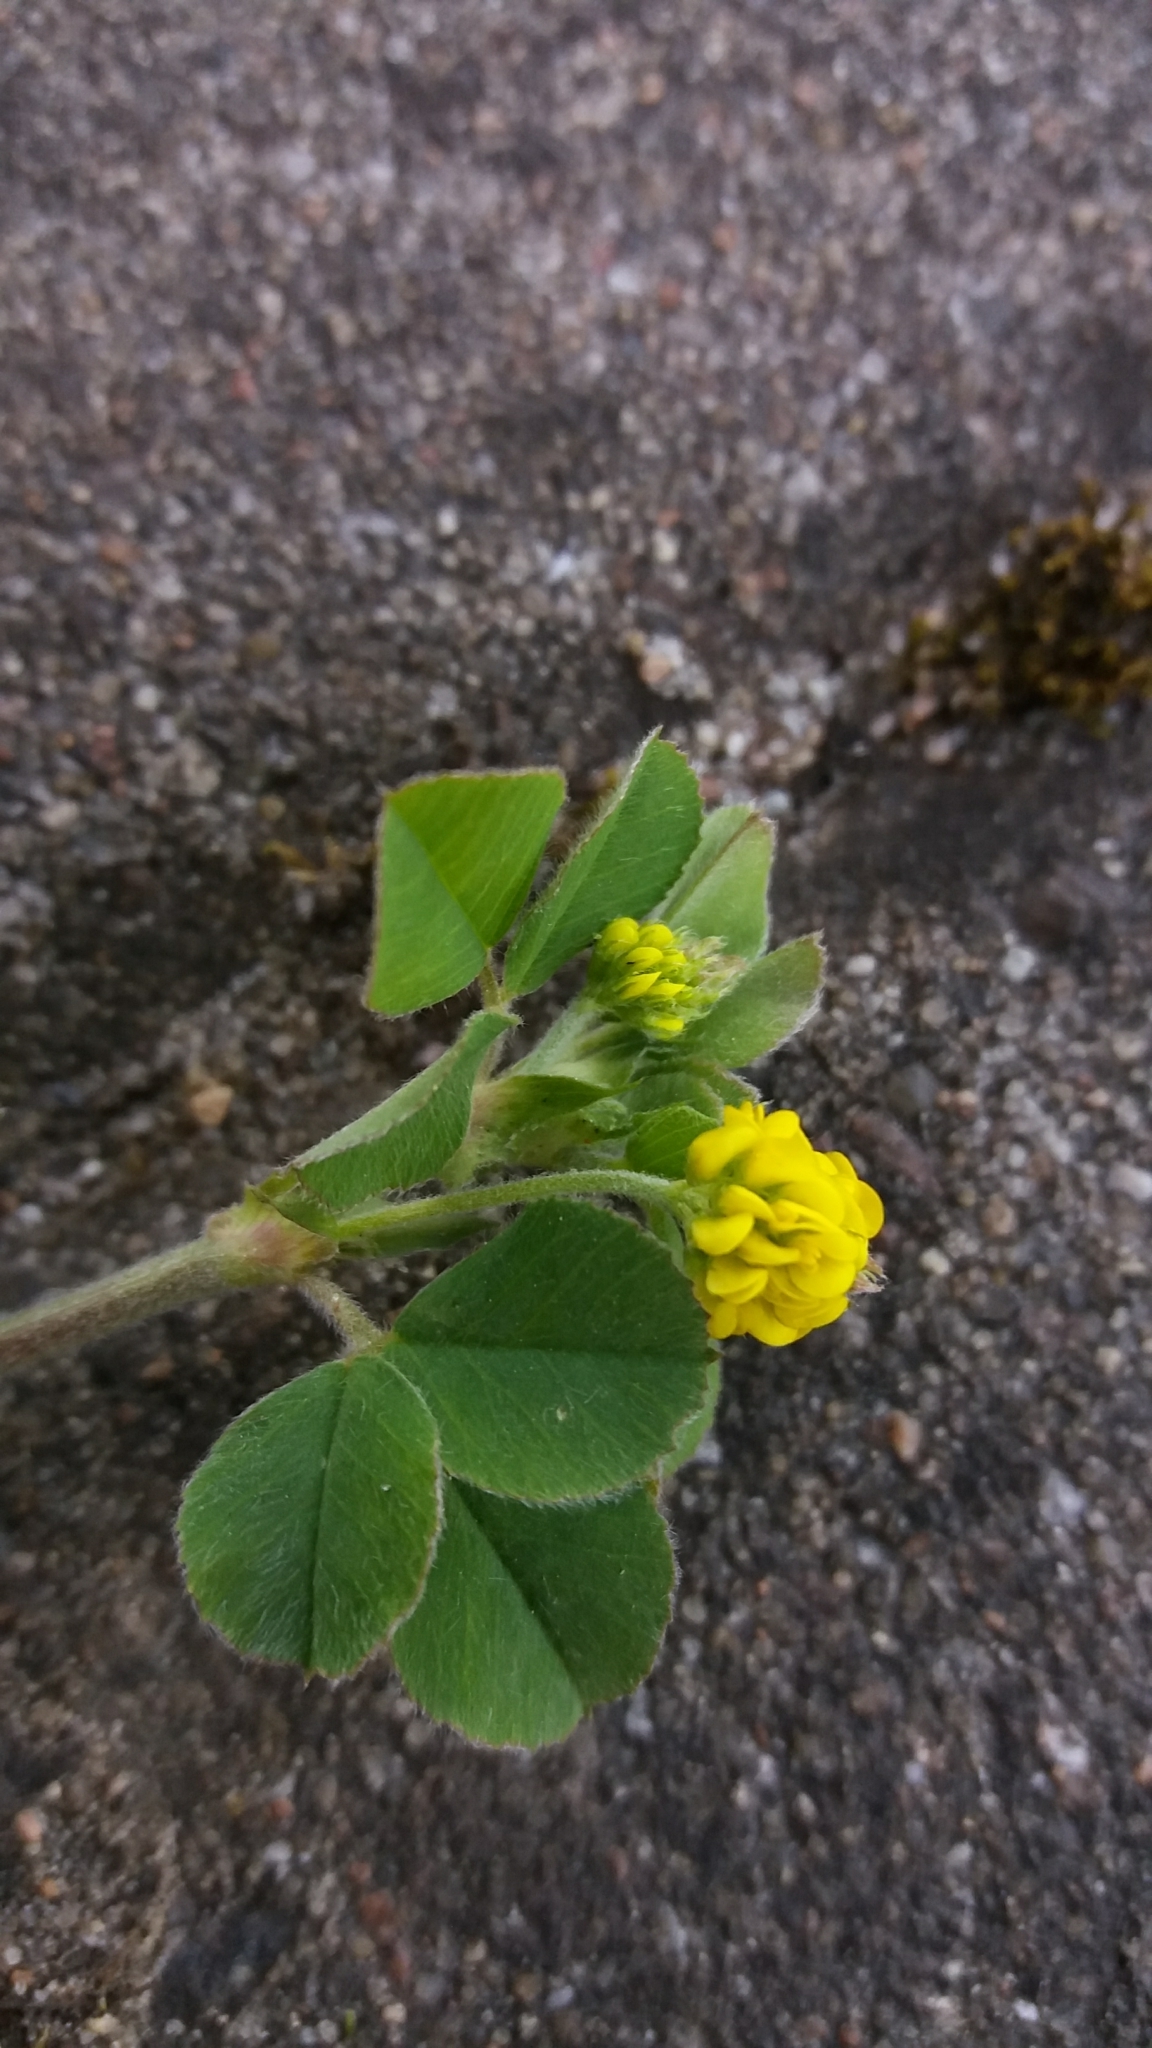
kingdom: Plantae
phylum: Tracheophyta
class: Magnoliopsida
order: Fabales
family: Fabaceae
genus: Medicago
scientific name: Medicago lupulina
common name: Black medick
